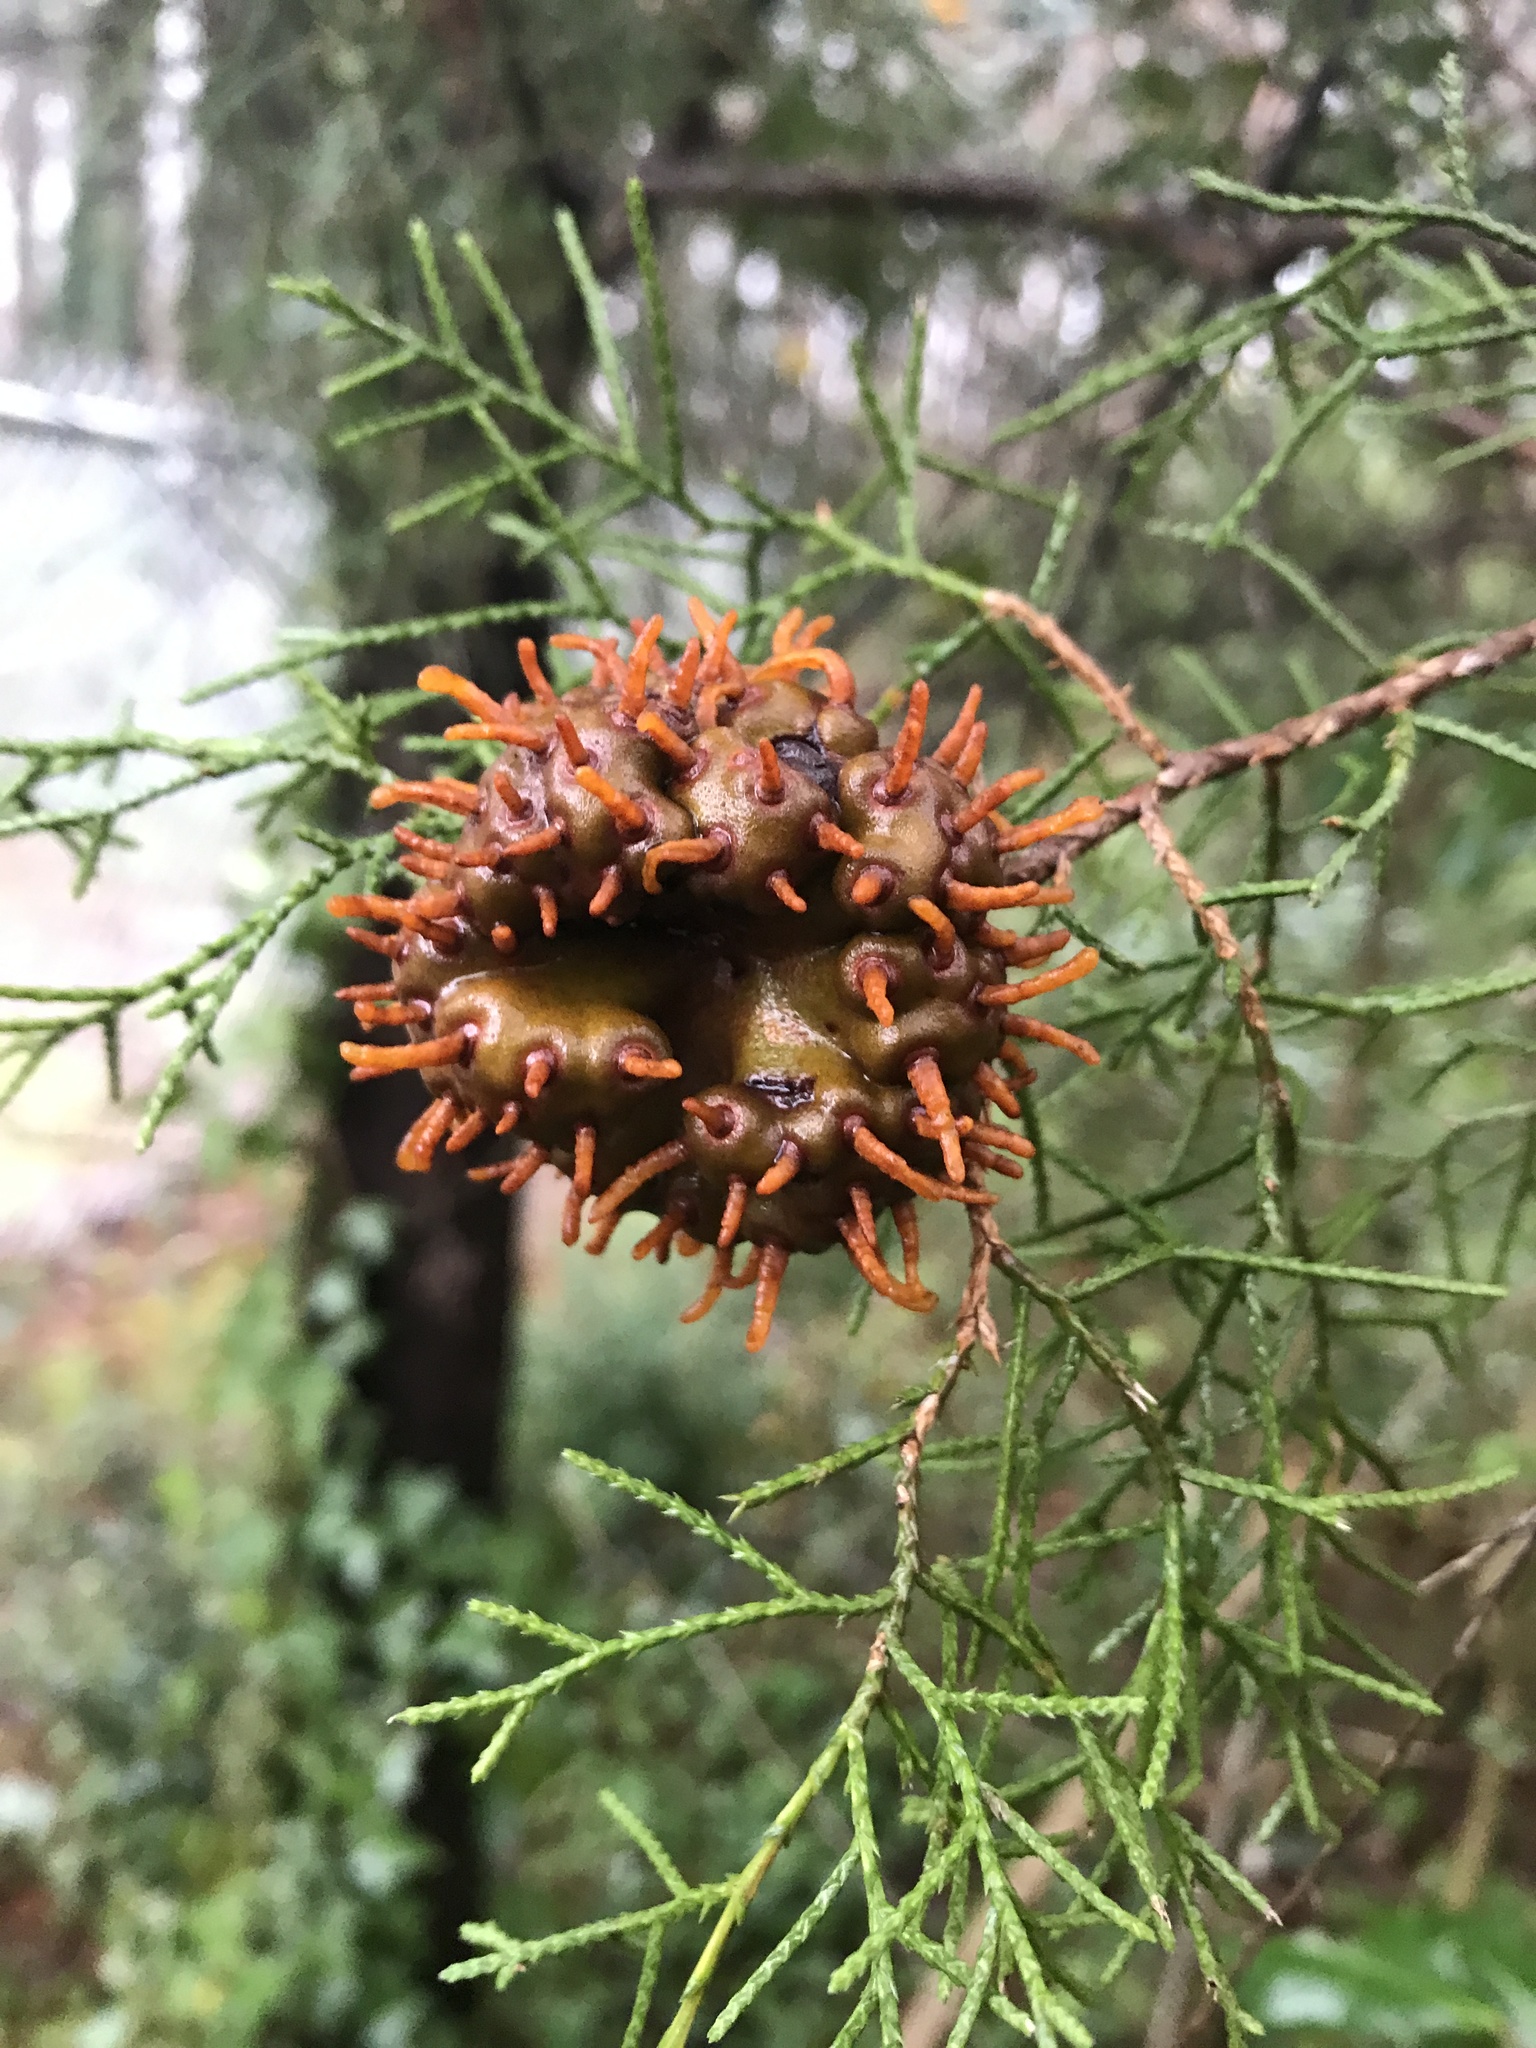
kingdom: Fungi
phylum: Basidiomycota
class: Pucciniomycetes
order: Pucciniales
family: Gymnosporangiaceae
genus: Gymnosporangium
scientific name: Gymnosporangium juniperi-virginianae
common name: Juniper-apple rust
